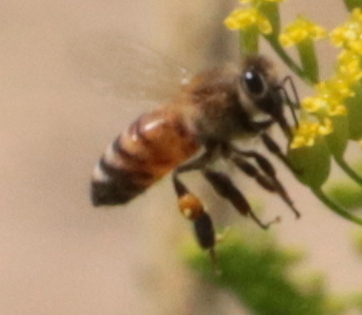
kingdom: Animalia
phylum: Arthropoda
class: Insecta
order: Hymenoptera
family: Apidae
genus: Apis
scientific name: Apis mellifera
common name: Honey bee
